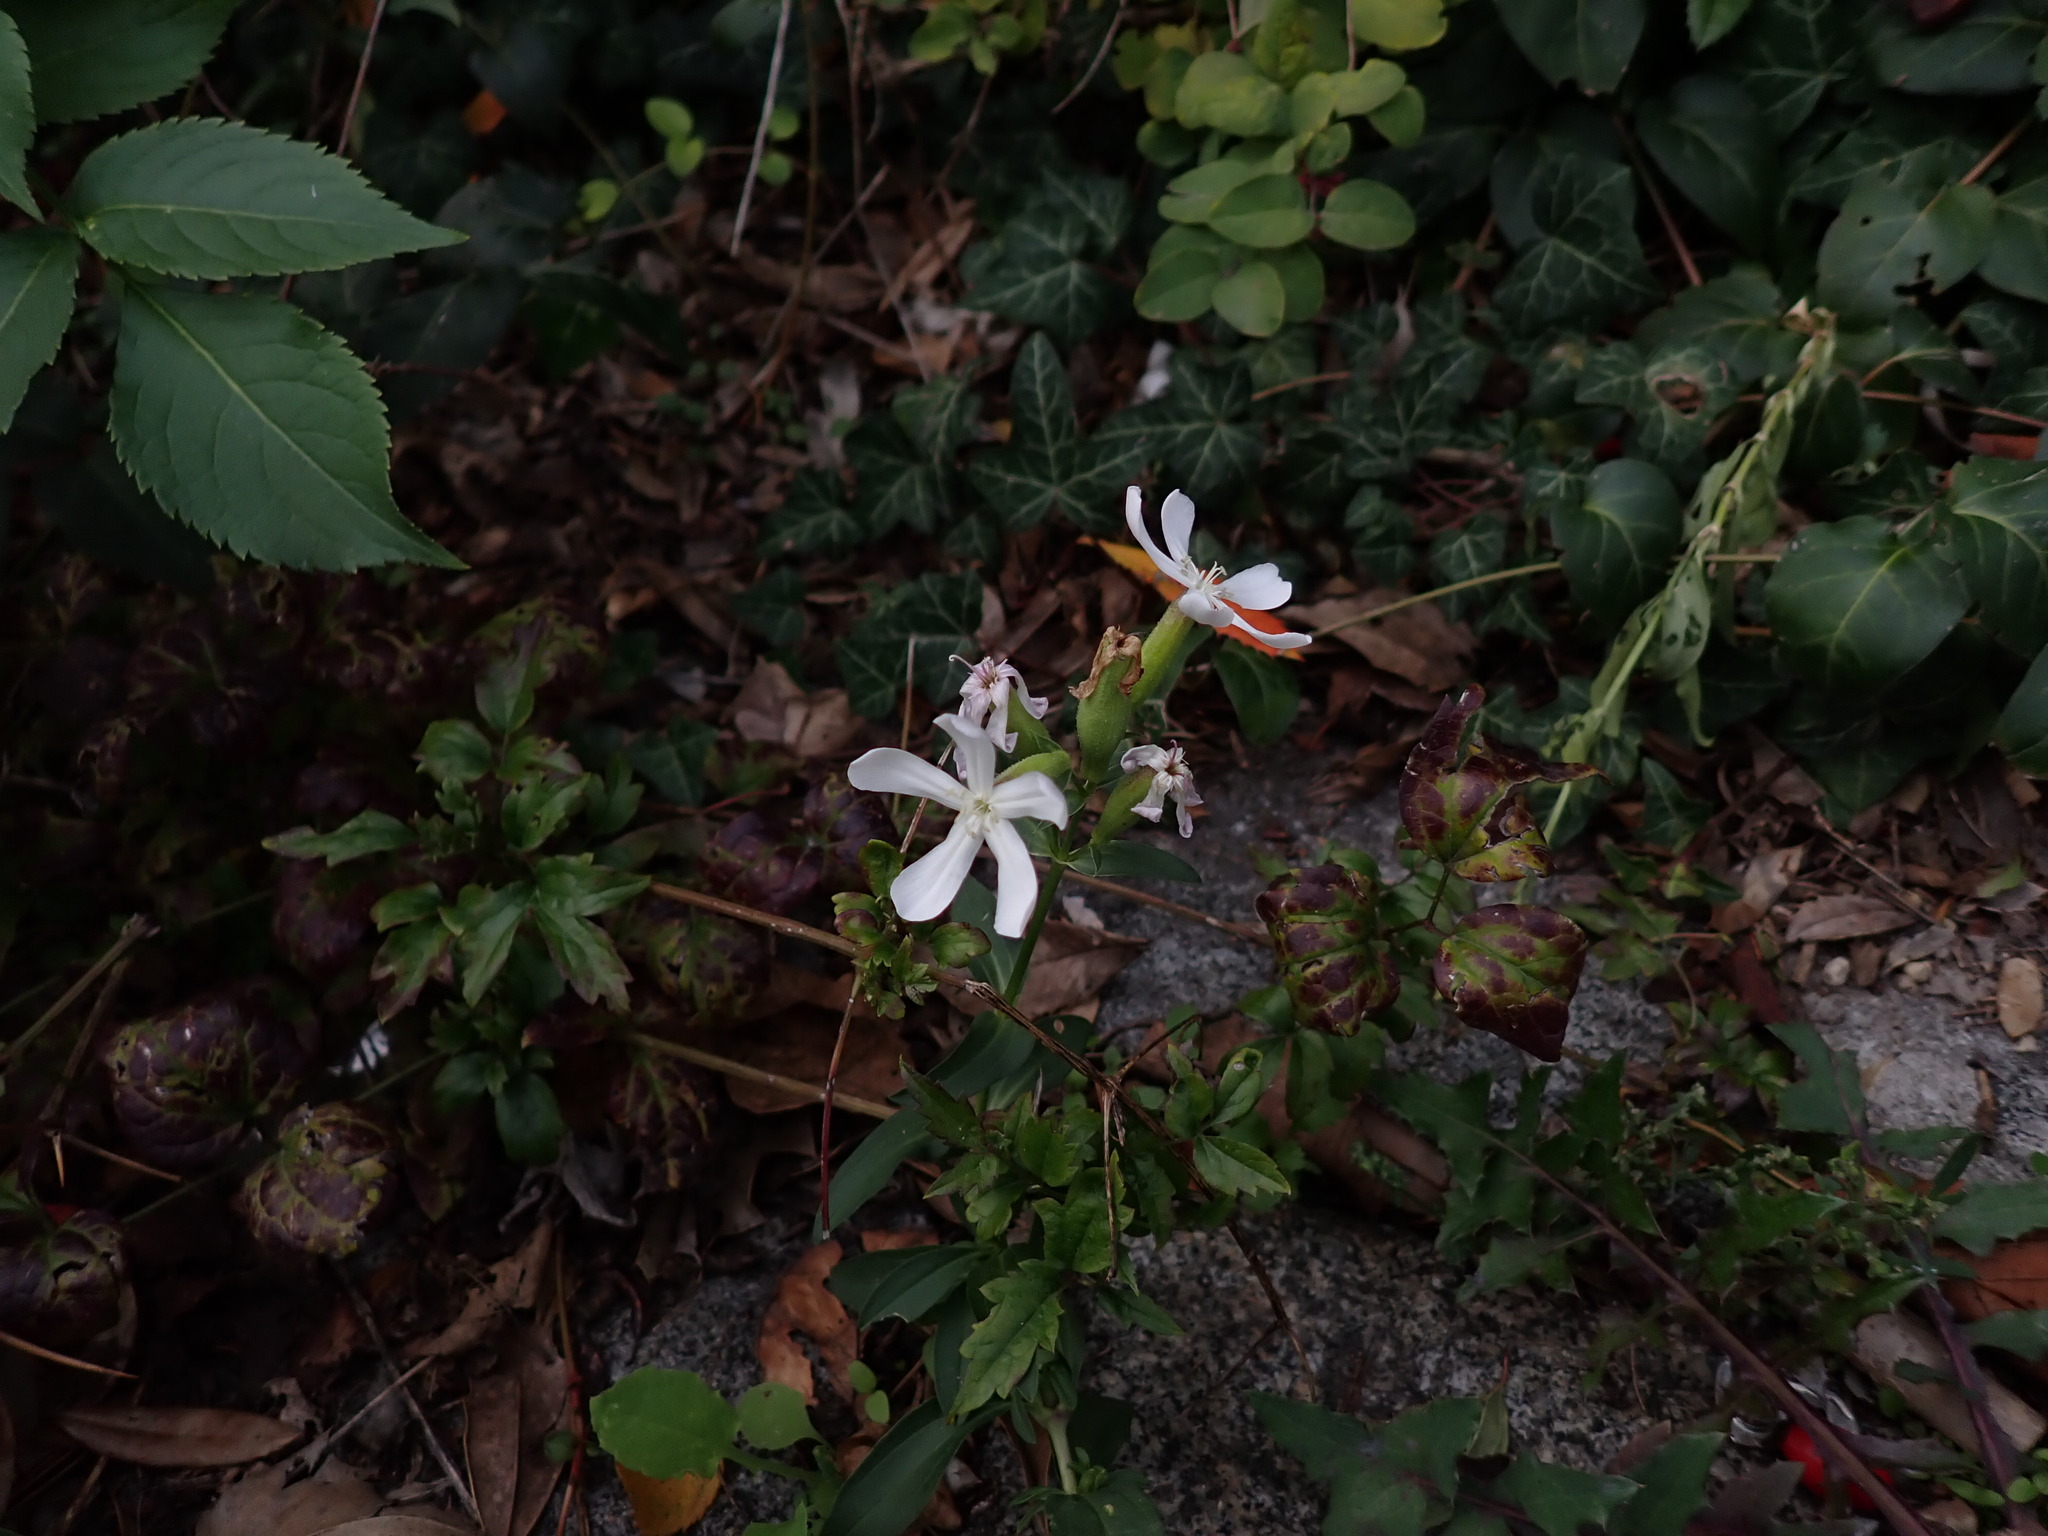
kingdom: Plantae
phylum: Tracheophyta
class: Magnoliopsida
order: Caryophyllales
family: Caryophyllaceae
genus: Saponaria
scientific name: Saponaria officinalis
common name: Soapwort
